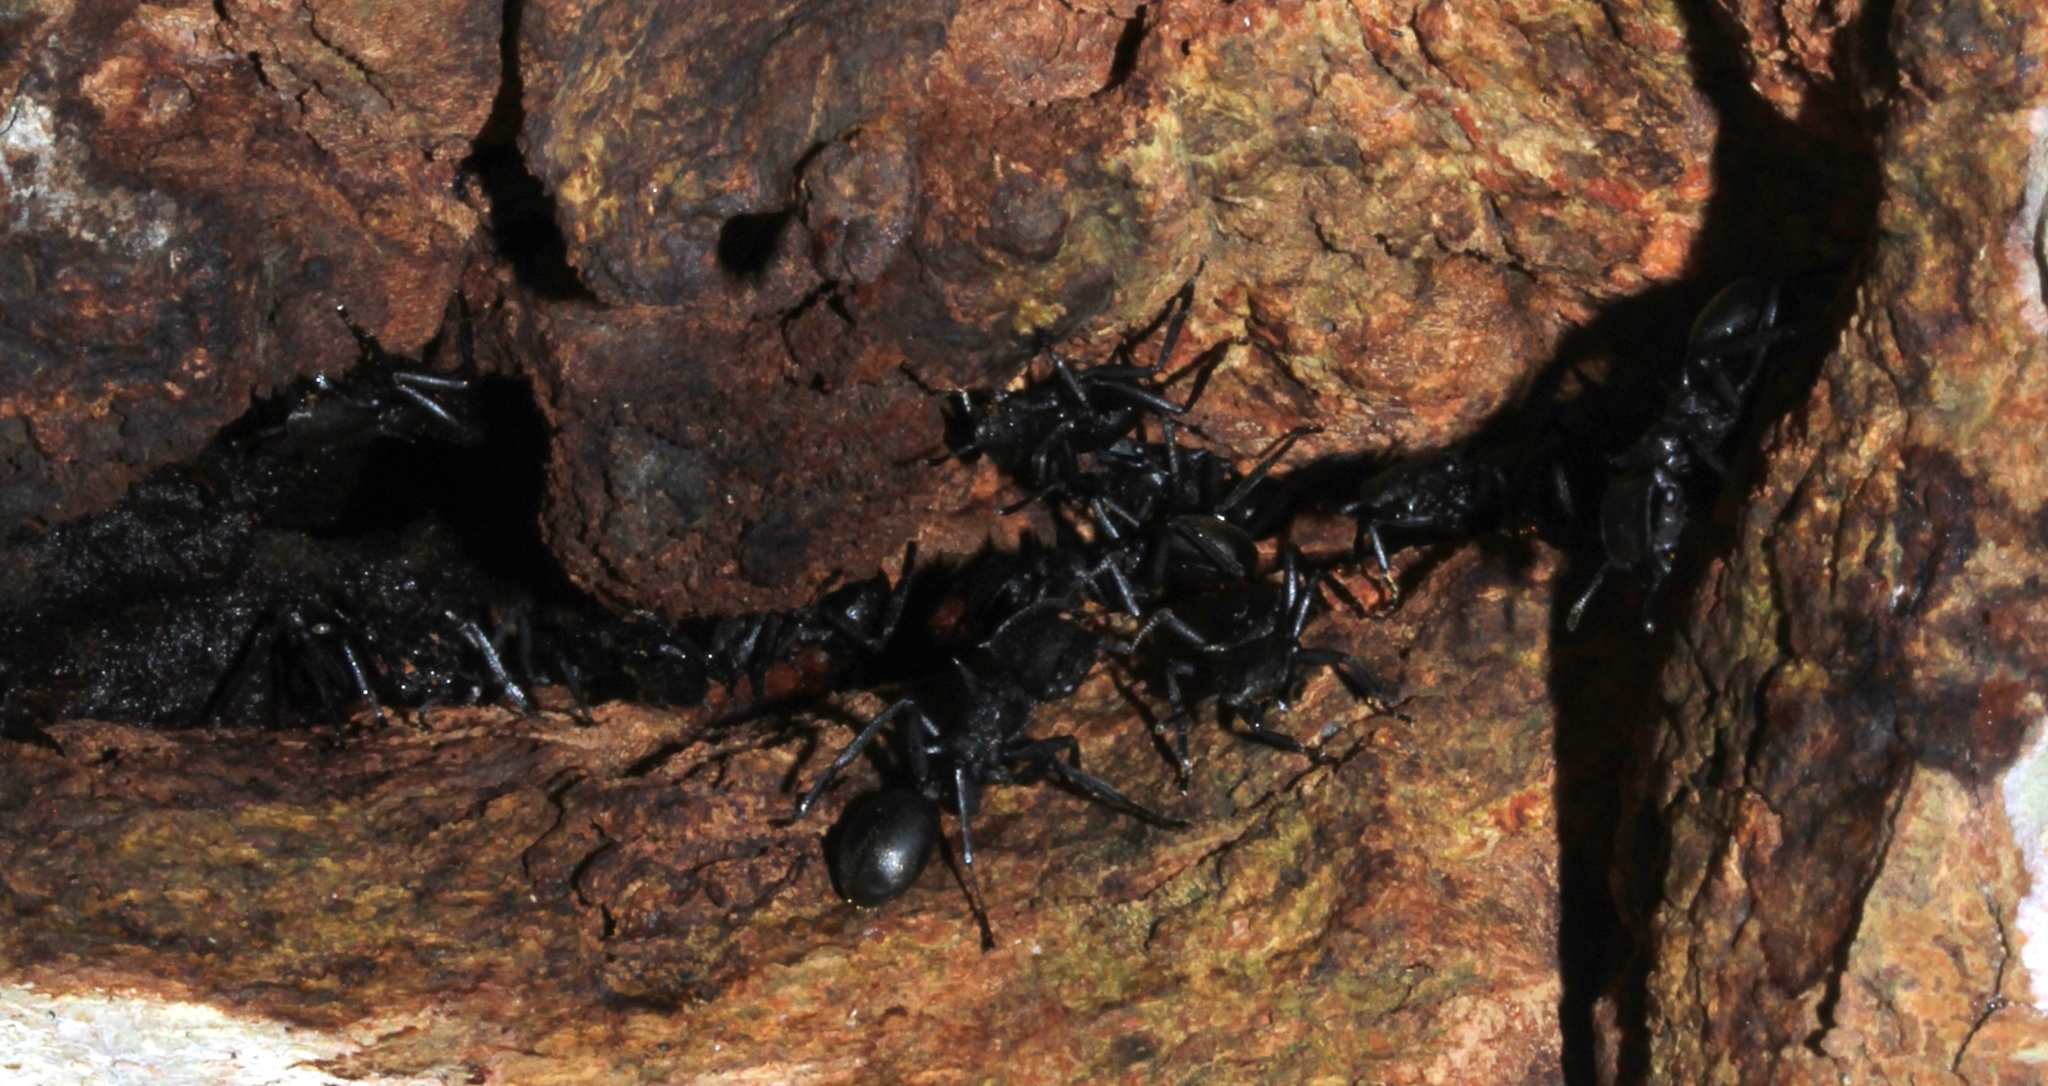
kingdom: Animalia
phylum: Arthropoda
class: Insecta
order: Hymenoptera
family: Formicidae
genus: Cephalotes
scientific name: Cephalotes atratus
